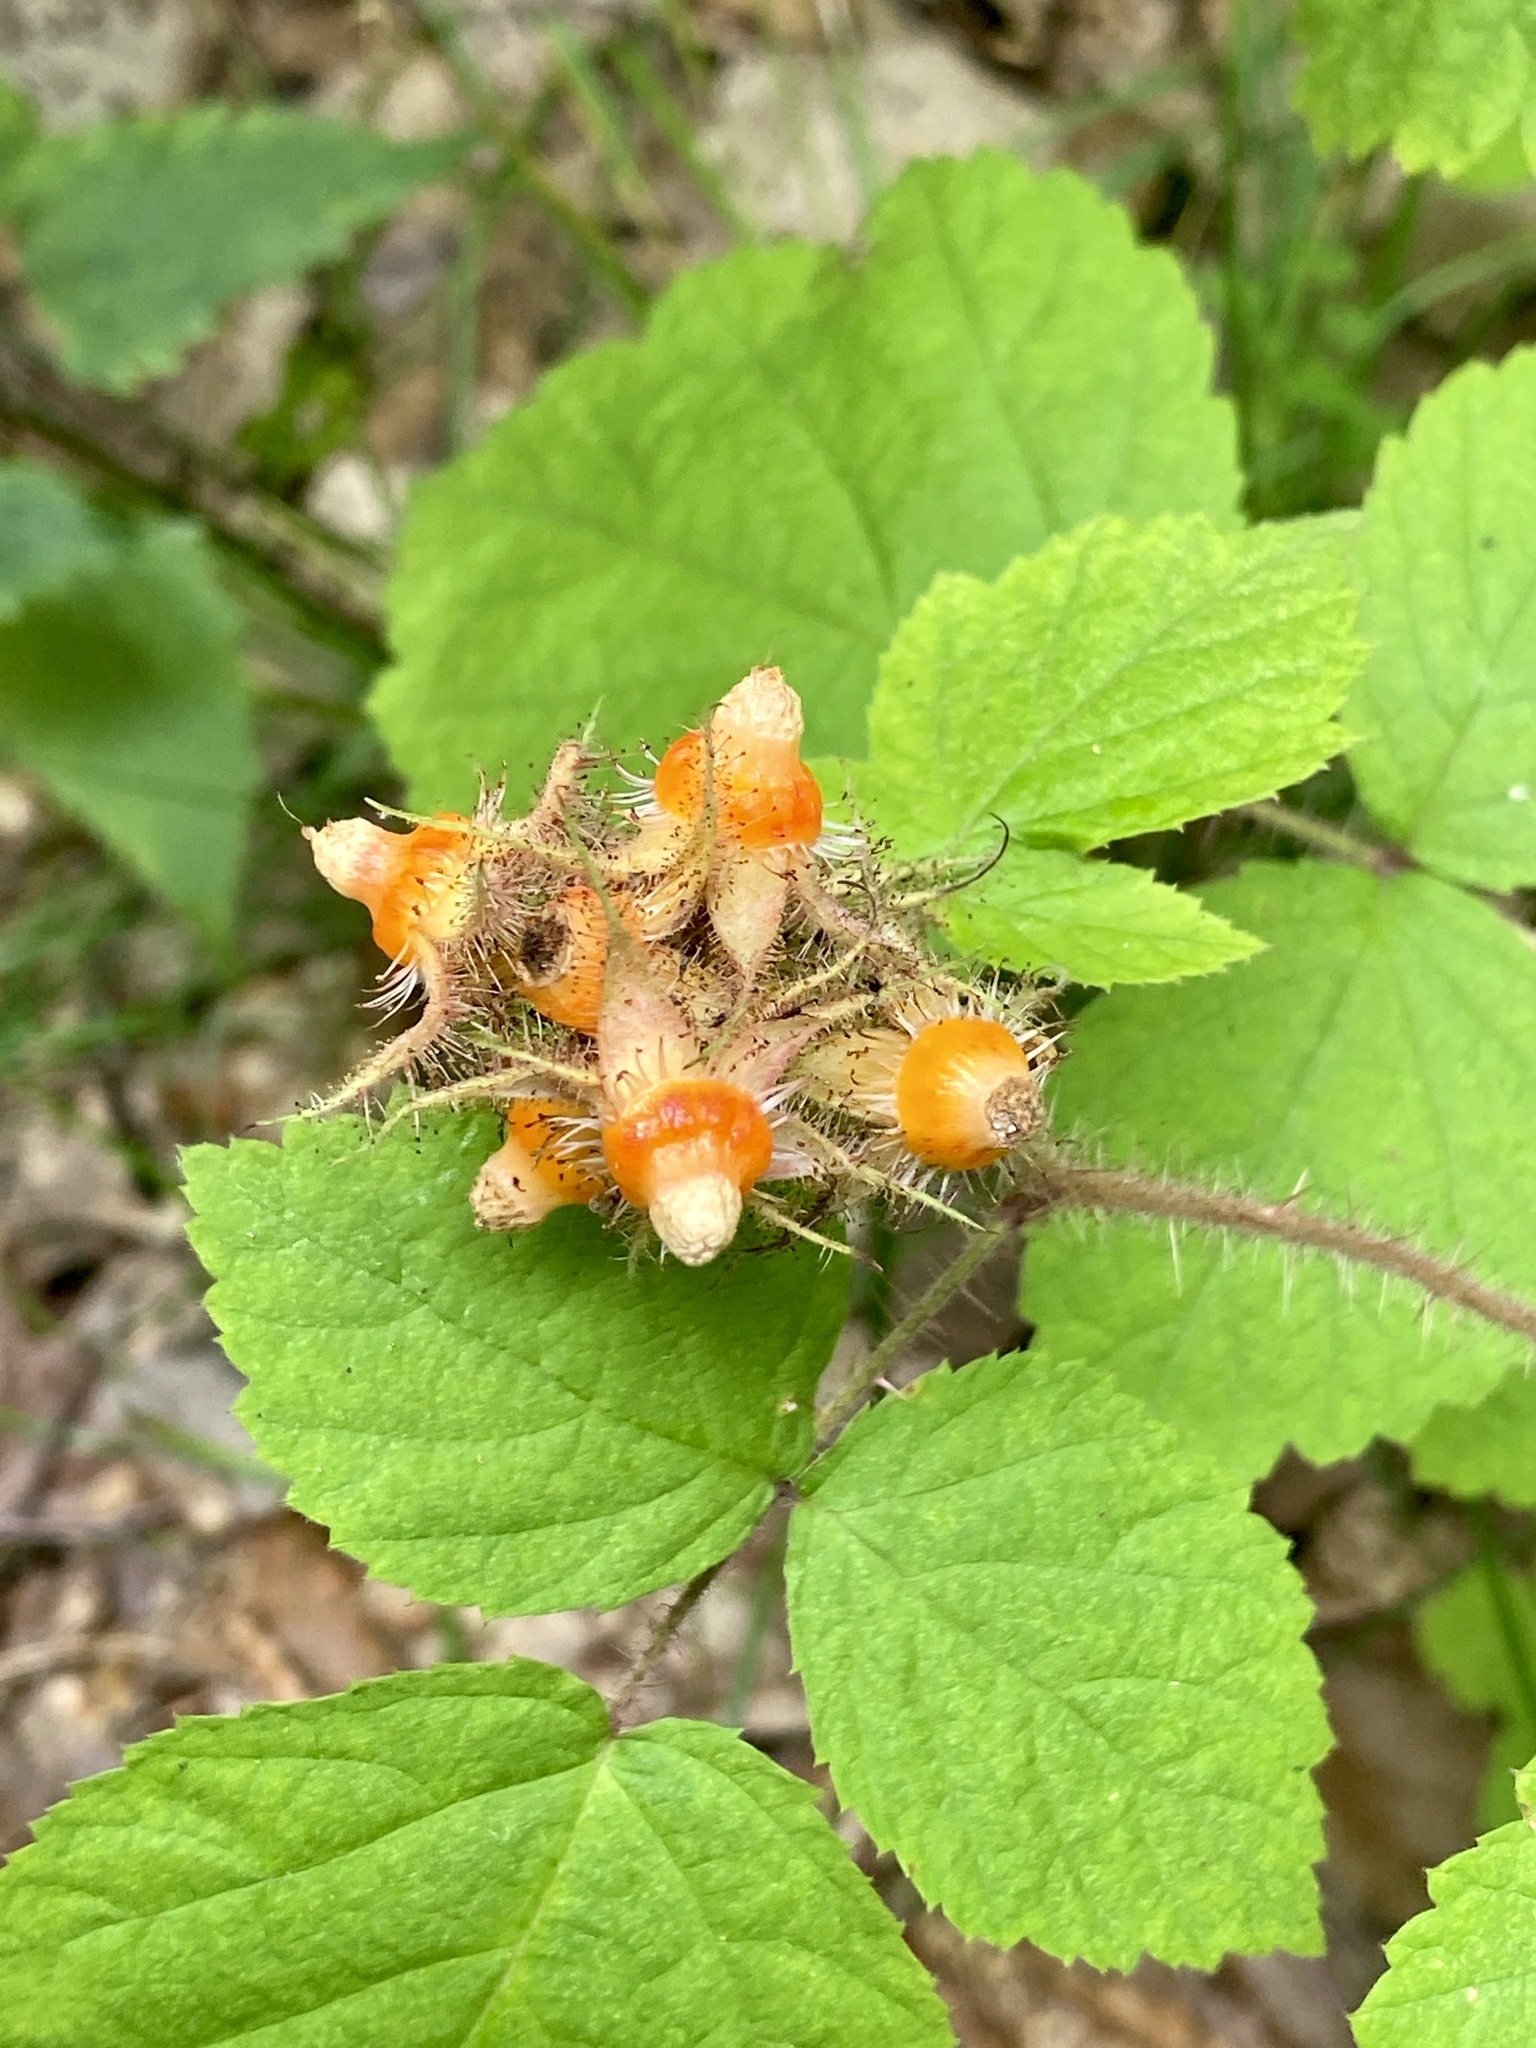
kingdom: Plantae
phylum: Tracheophyta
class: Magnoliopsida
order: Rosales
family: Rosaceae
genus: Rubus
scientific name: Rubus phoenicolasius
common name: Japanese wineberry
